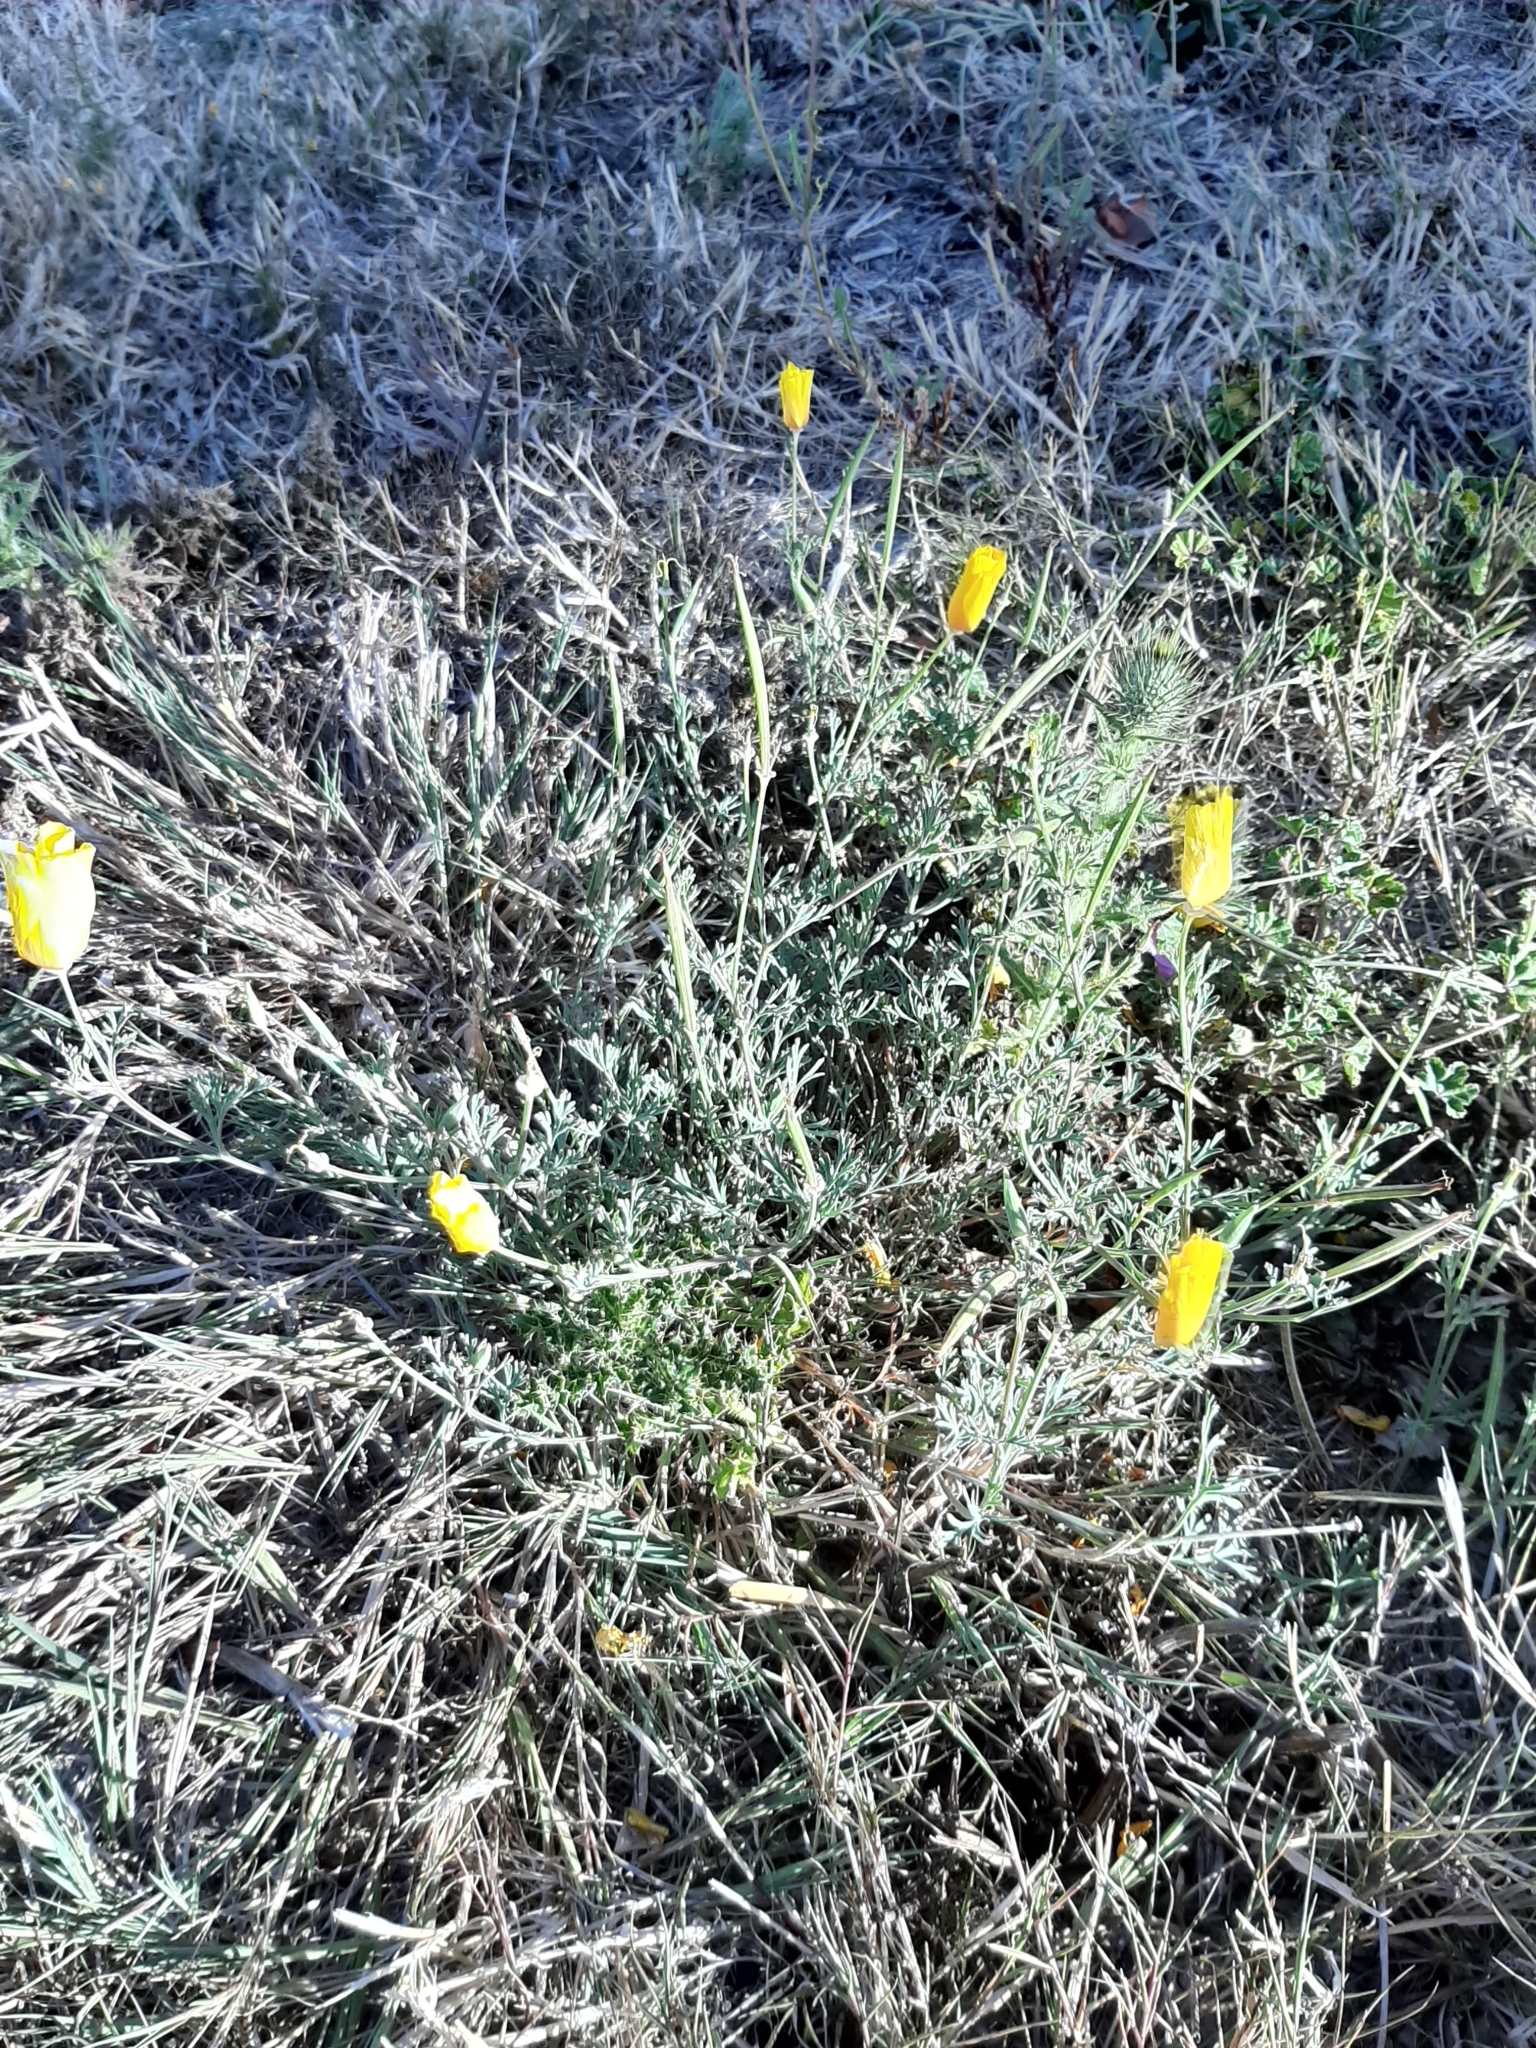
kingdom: Plantae
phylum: Tracheophyta
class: Magnoliopsida
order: Ranunculales
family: Papaveraceae
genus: Eschscholzia
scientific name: Eschscholzia californica
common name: California poppy
